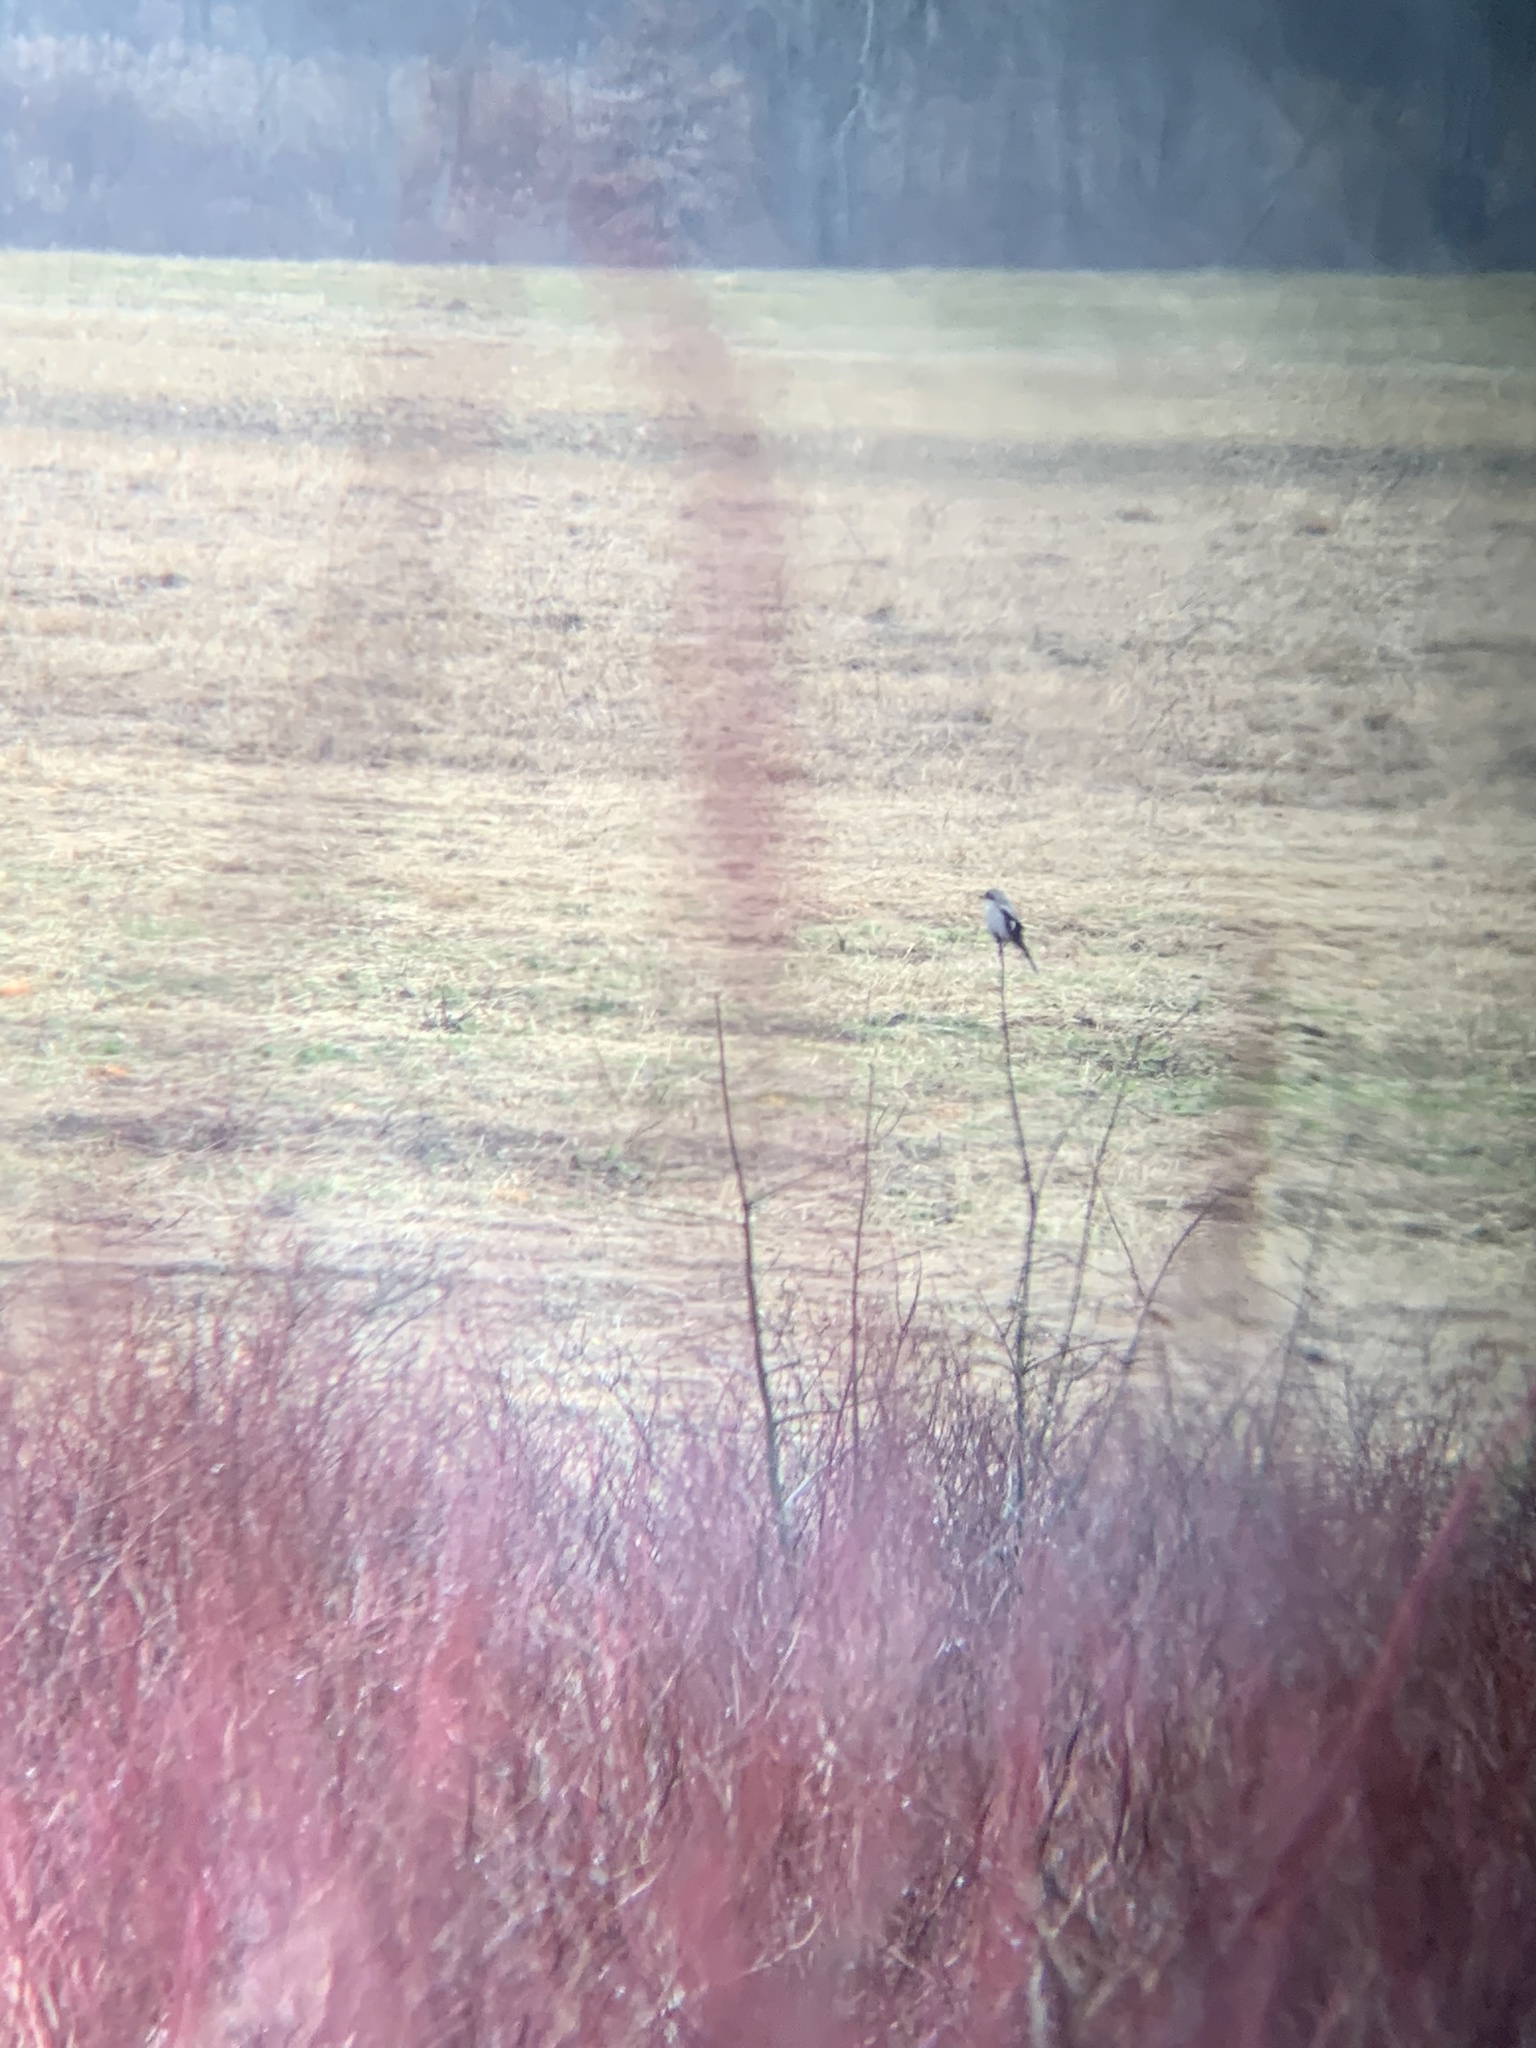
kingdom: Animalia
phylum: Chordata
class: Aves
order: Passeriformes
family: Laniidae
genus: Lanius
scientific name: Lanius borealis
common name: Northern shrike
